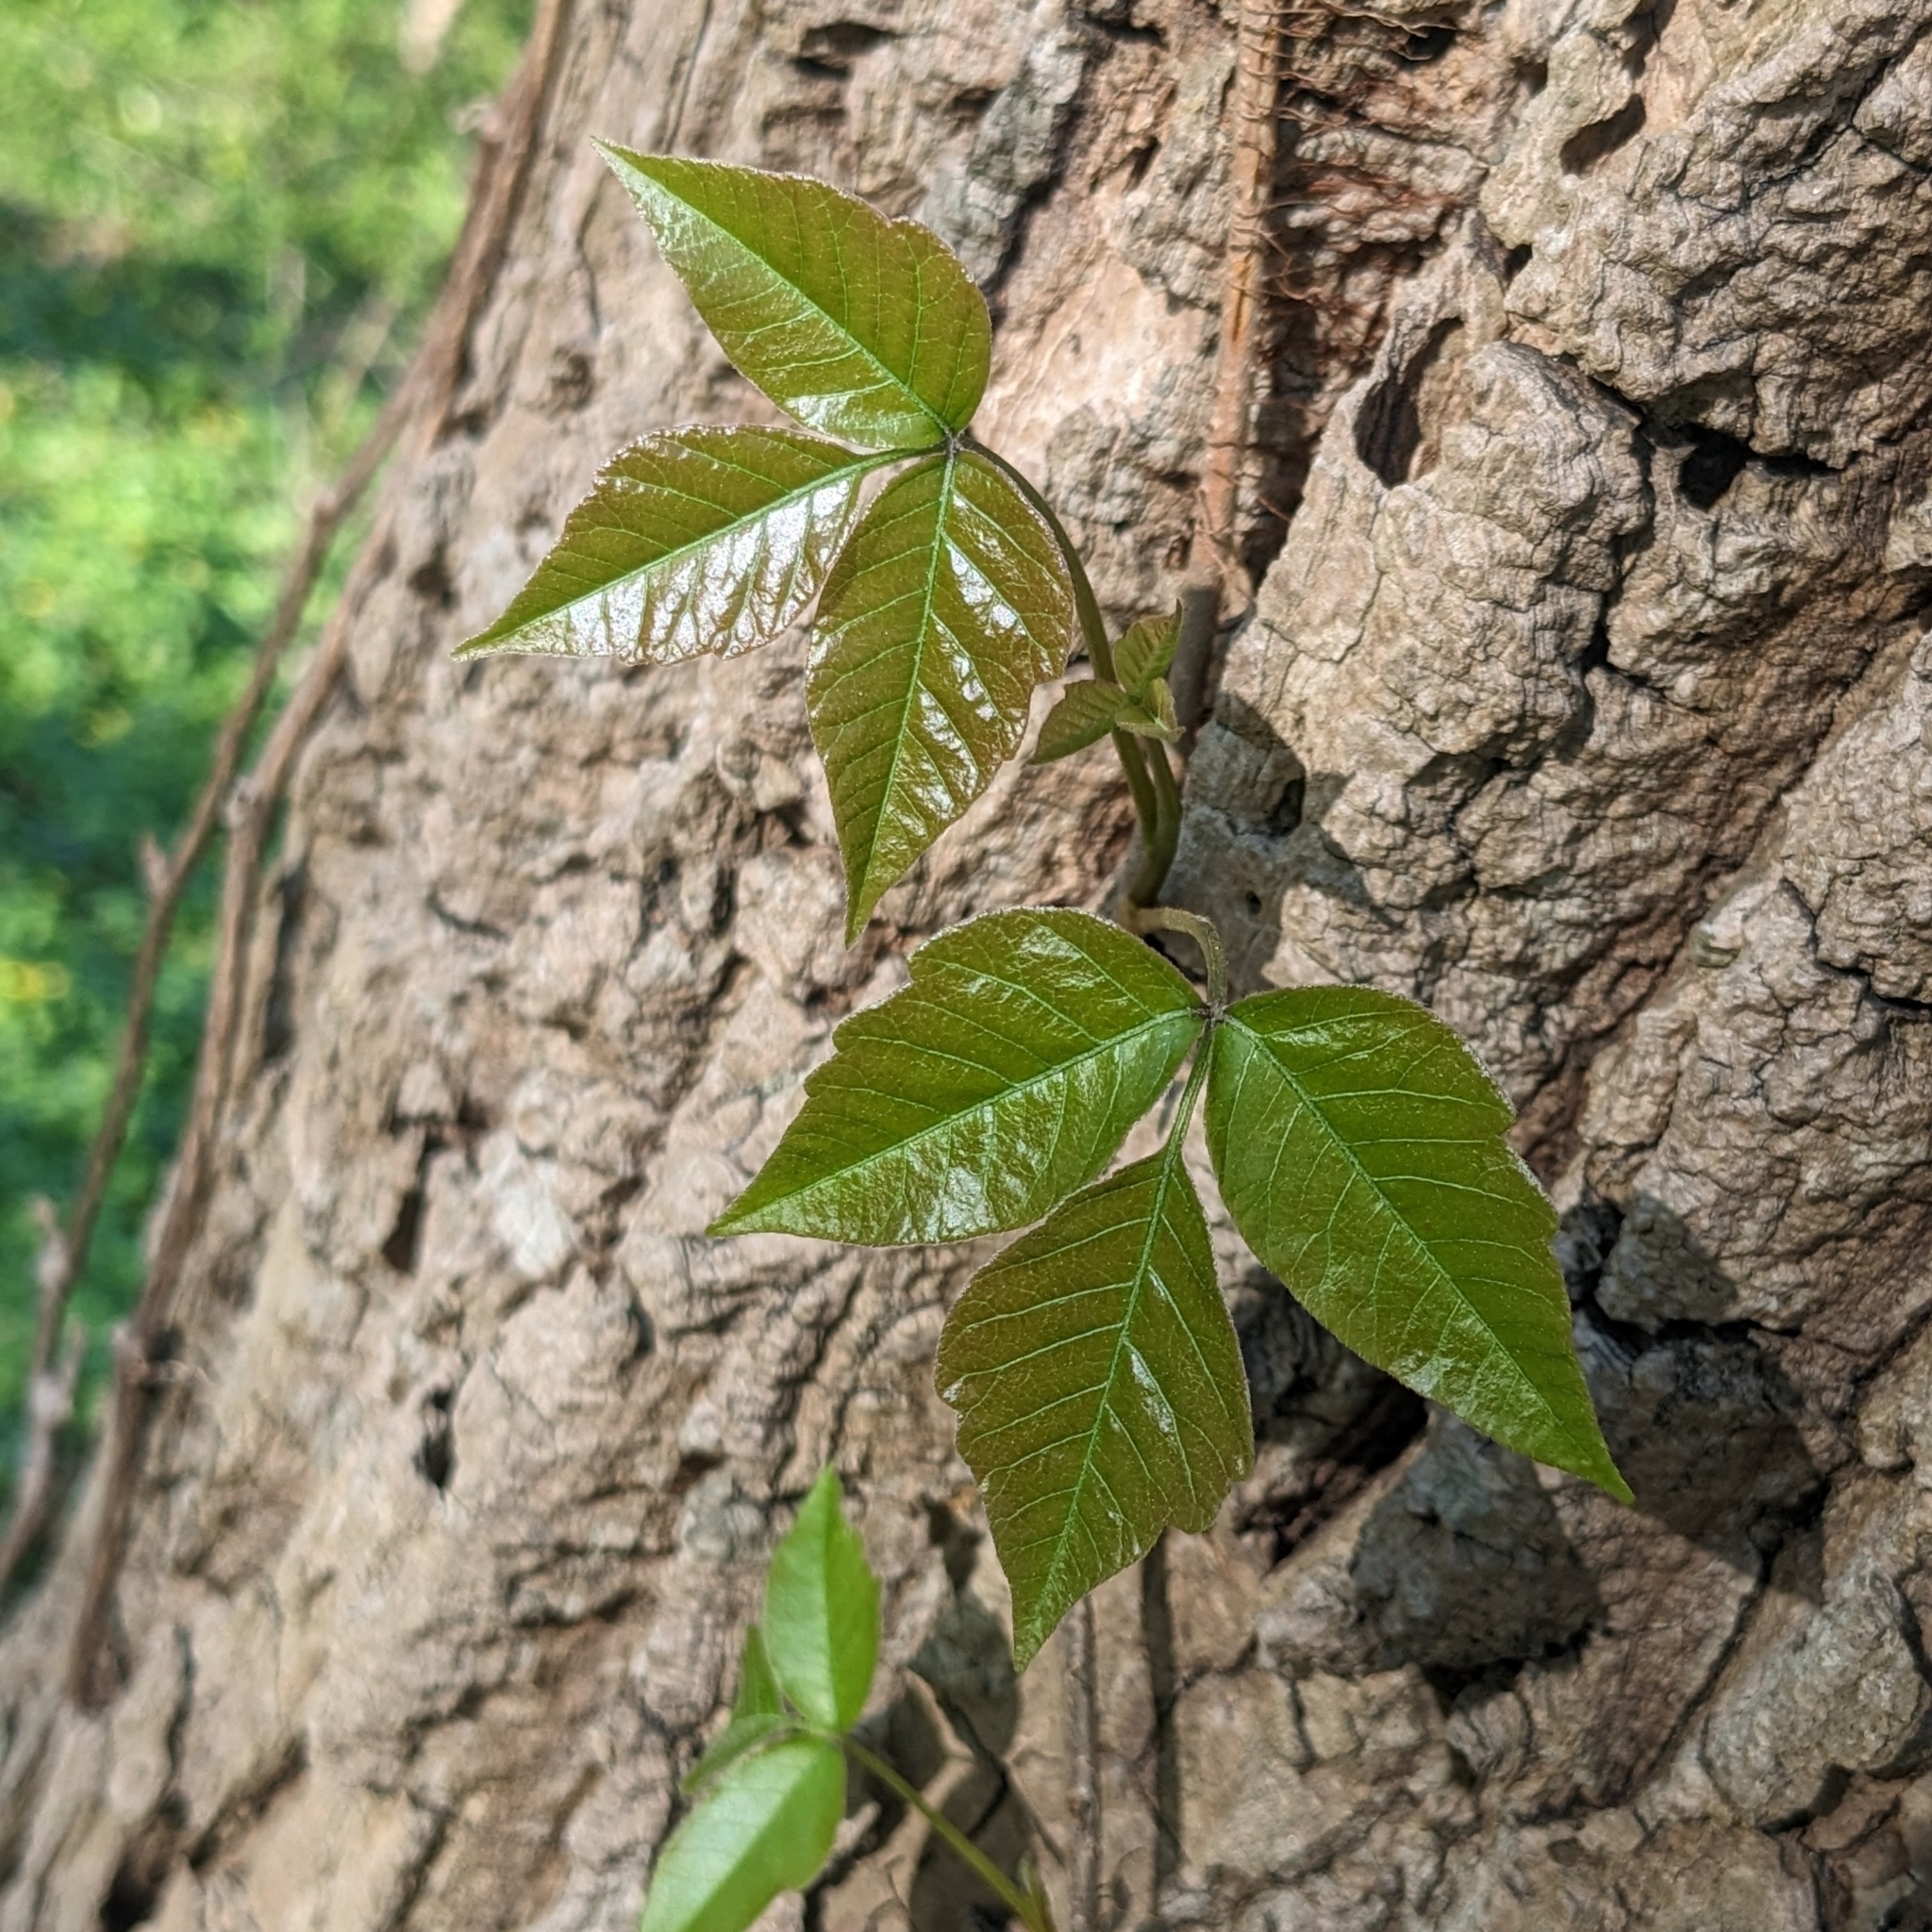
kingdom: Plantae
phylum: Tracheophyta
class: Magnoliopsida
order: Sapindales
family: Anacardiaceae
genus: Toxicodendron
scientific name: Toxicodendron radicans
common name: Poison ivy
